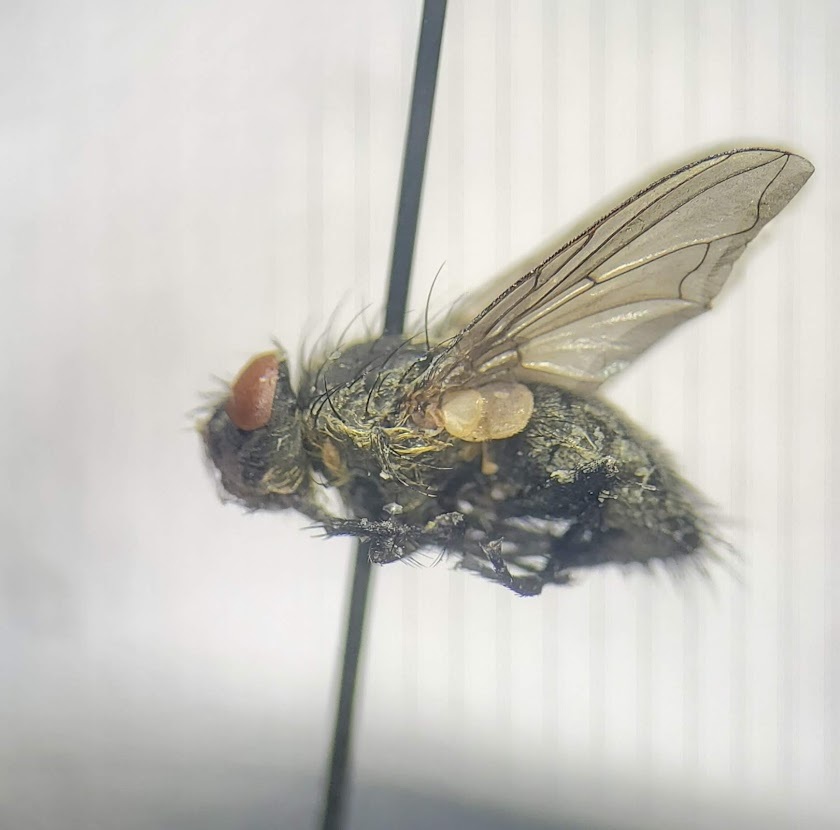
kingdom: Animalia
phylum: Arthropoda
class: Insecta
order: Diptera
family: Polleniidae
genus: Pollenia
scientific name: Pollenia
